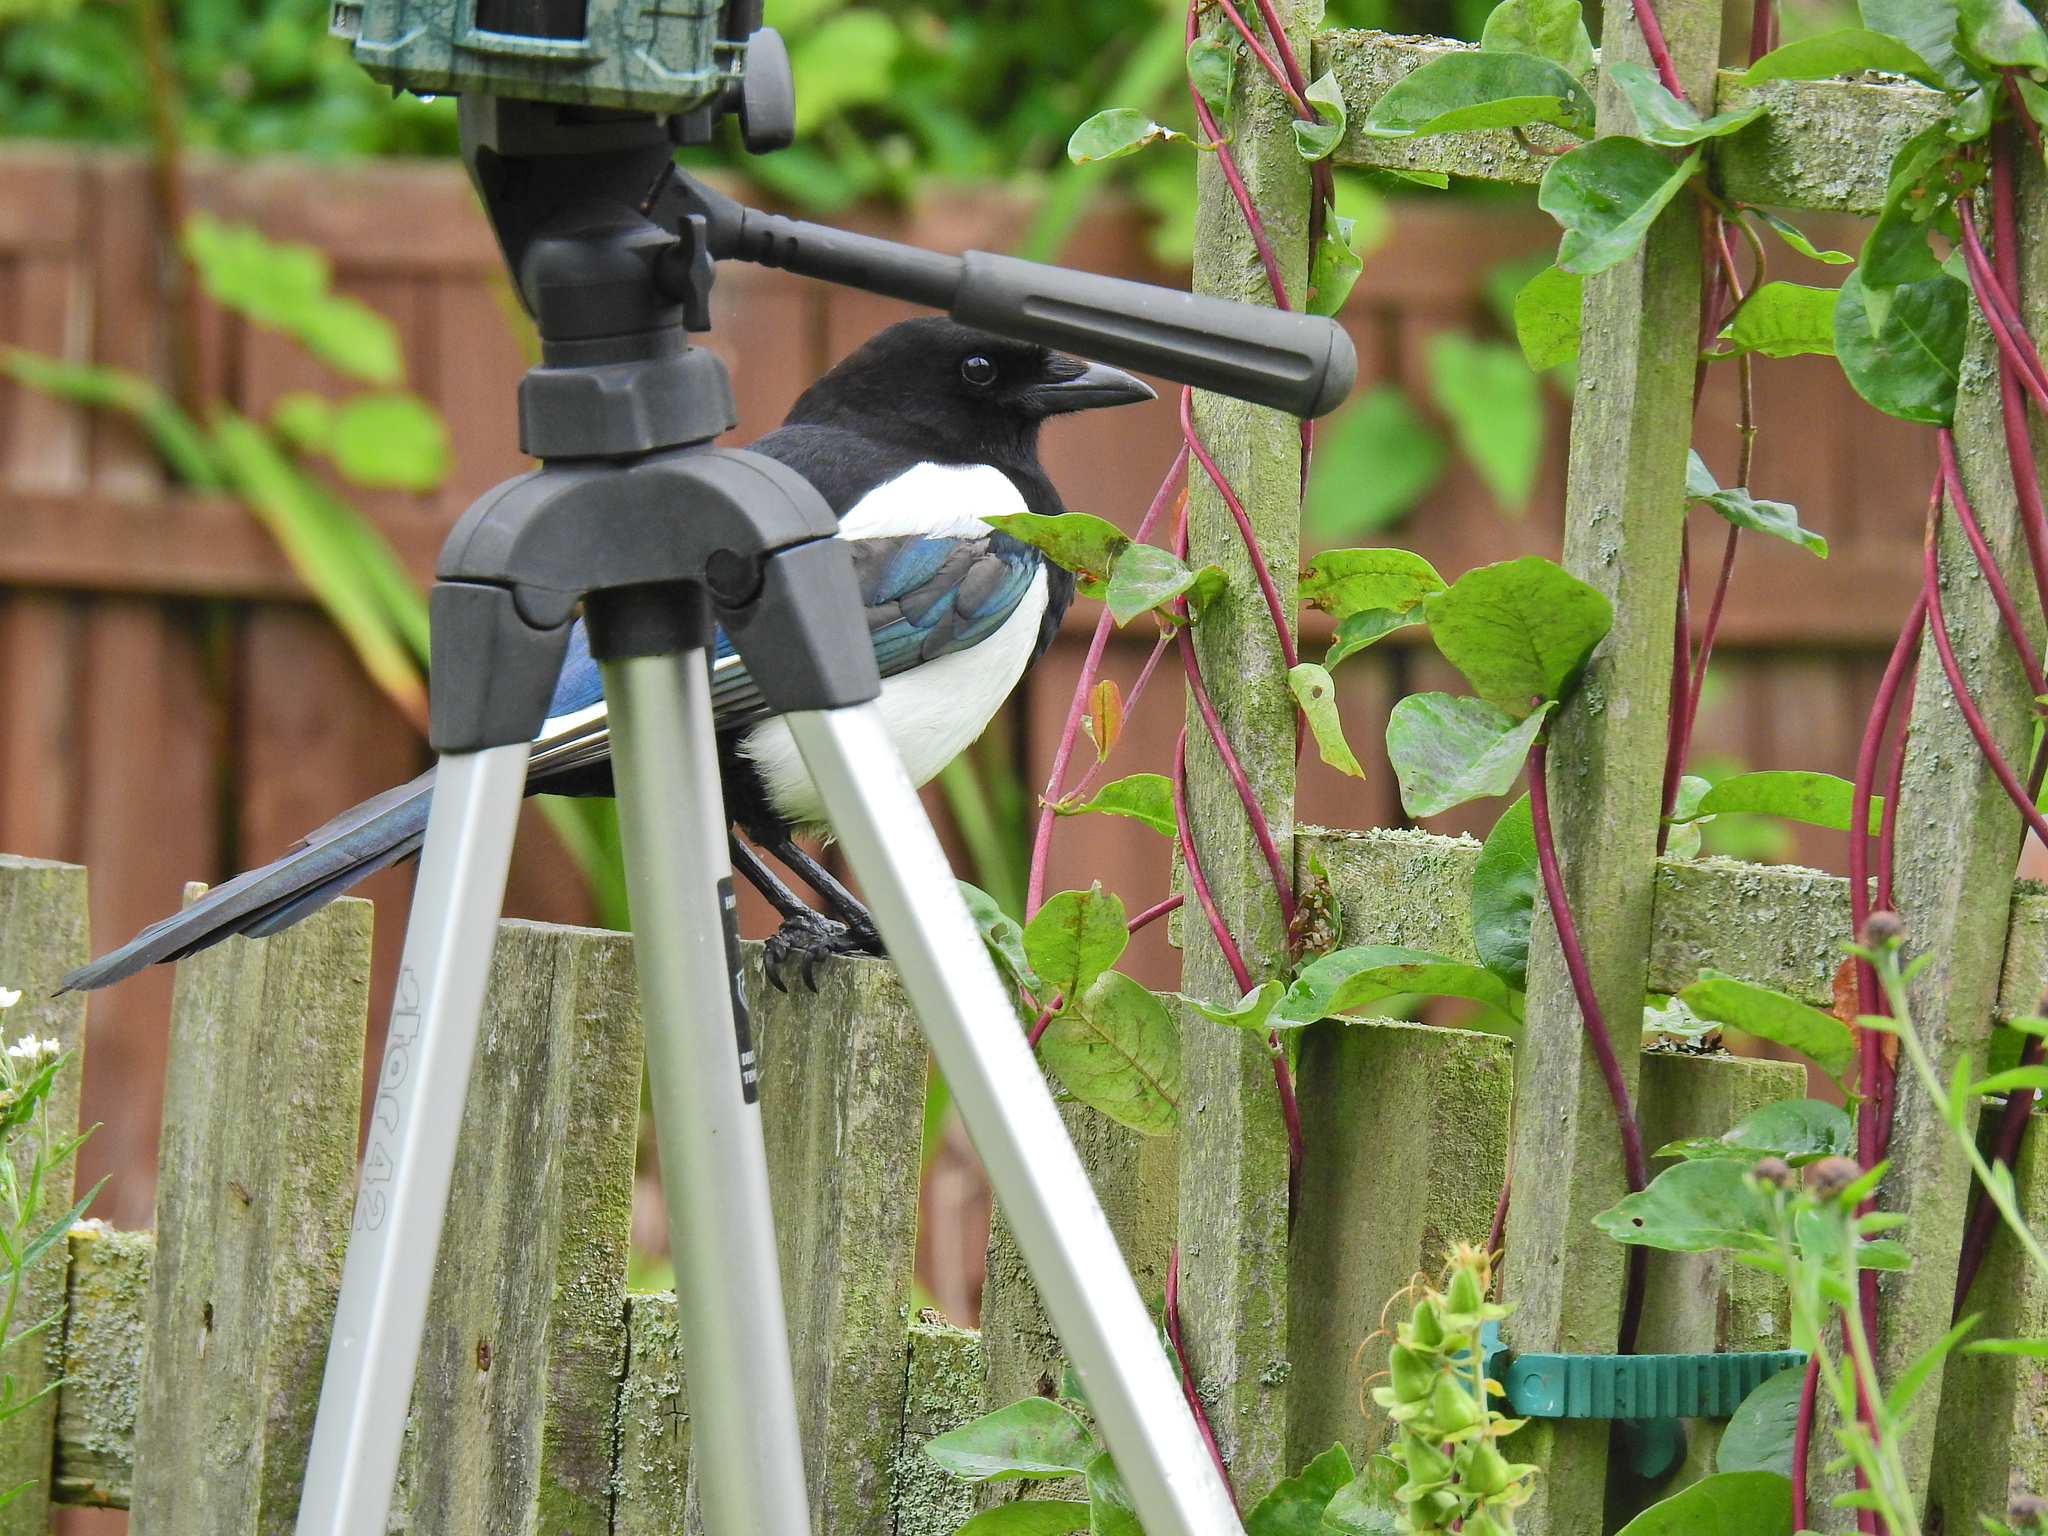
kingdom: Animalia
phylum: Chordata
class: Aves
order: Passeriformes
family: Corvidae
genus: Pica
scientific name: Pica pica
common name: Eurasian magpie
